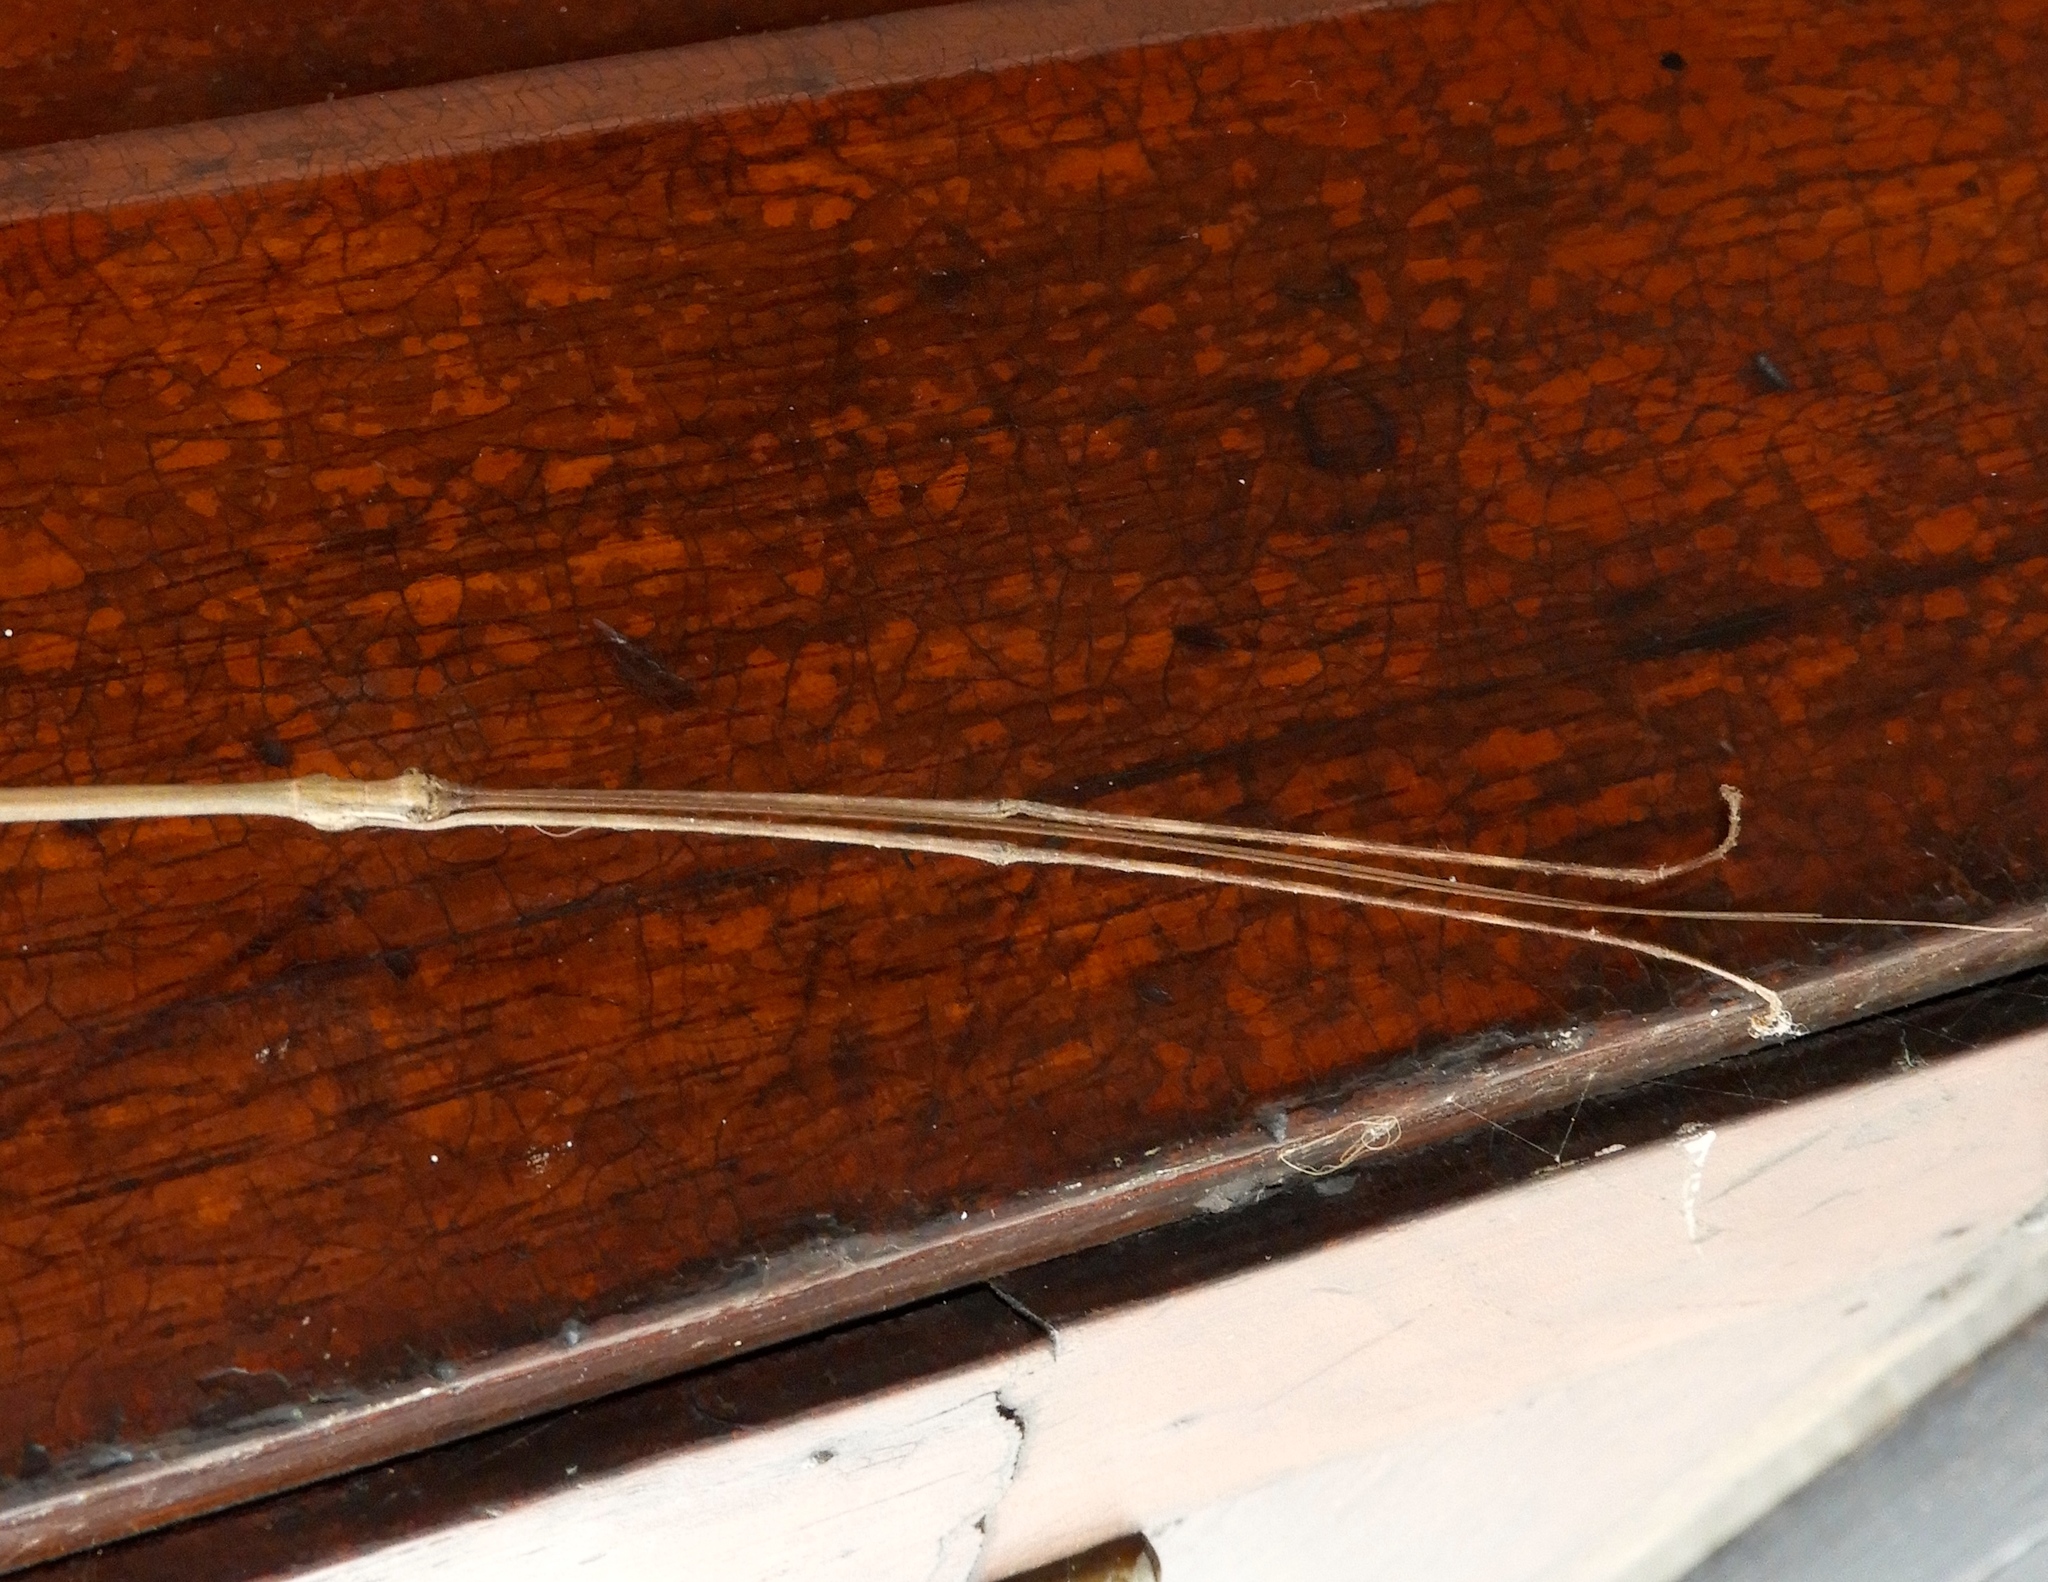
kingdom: Animalia
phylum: Arthropoda
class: Insecta
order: Phasmida
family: Diapheromeridae
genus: Phanocles
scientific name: Phanocles
